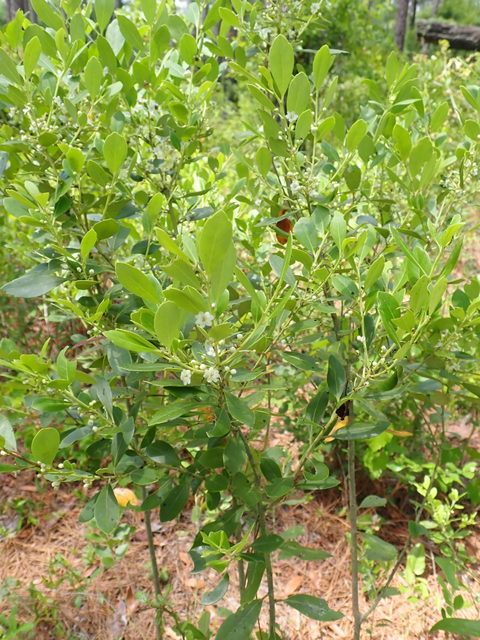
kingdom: Plantae
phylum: Tracheophyta
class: Magnoliopsida
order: Aquifoliales
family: Aquifoliaceae
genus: Ilex
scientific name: Ilex glabra
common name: Bitter gallberry
